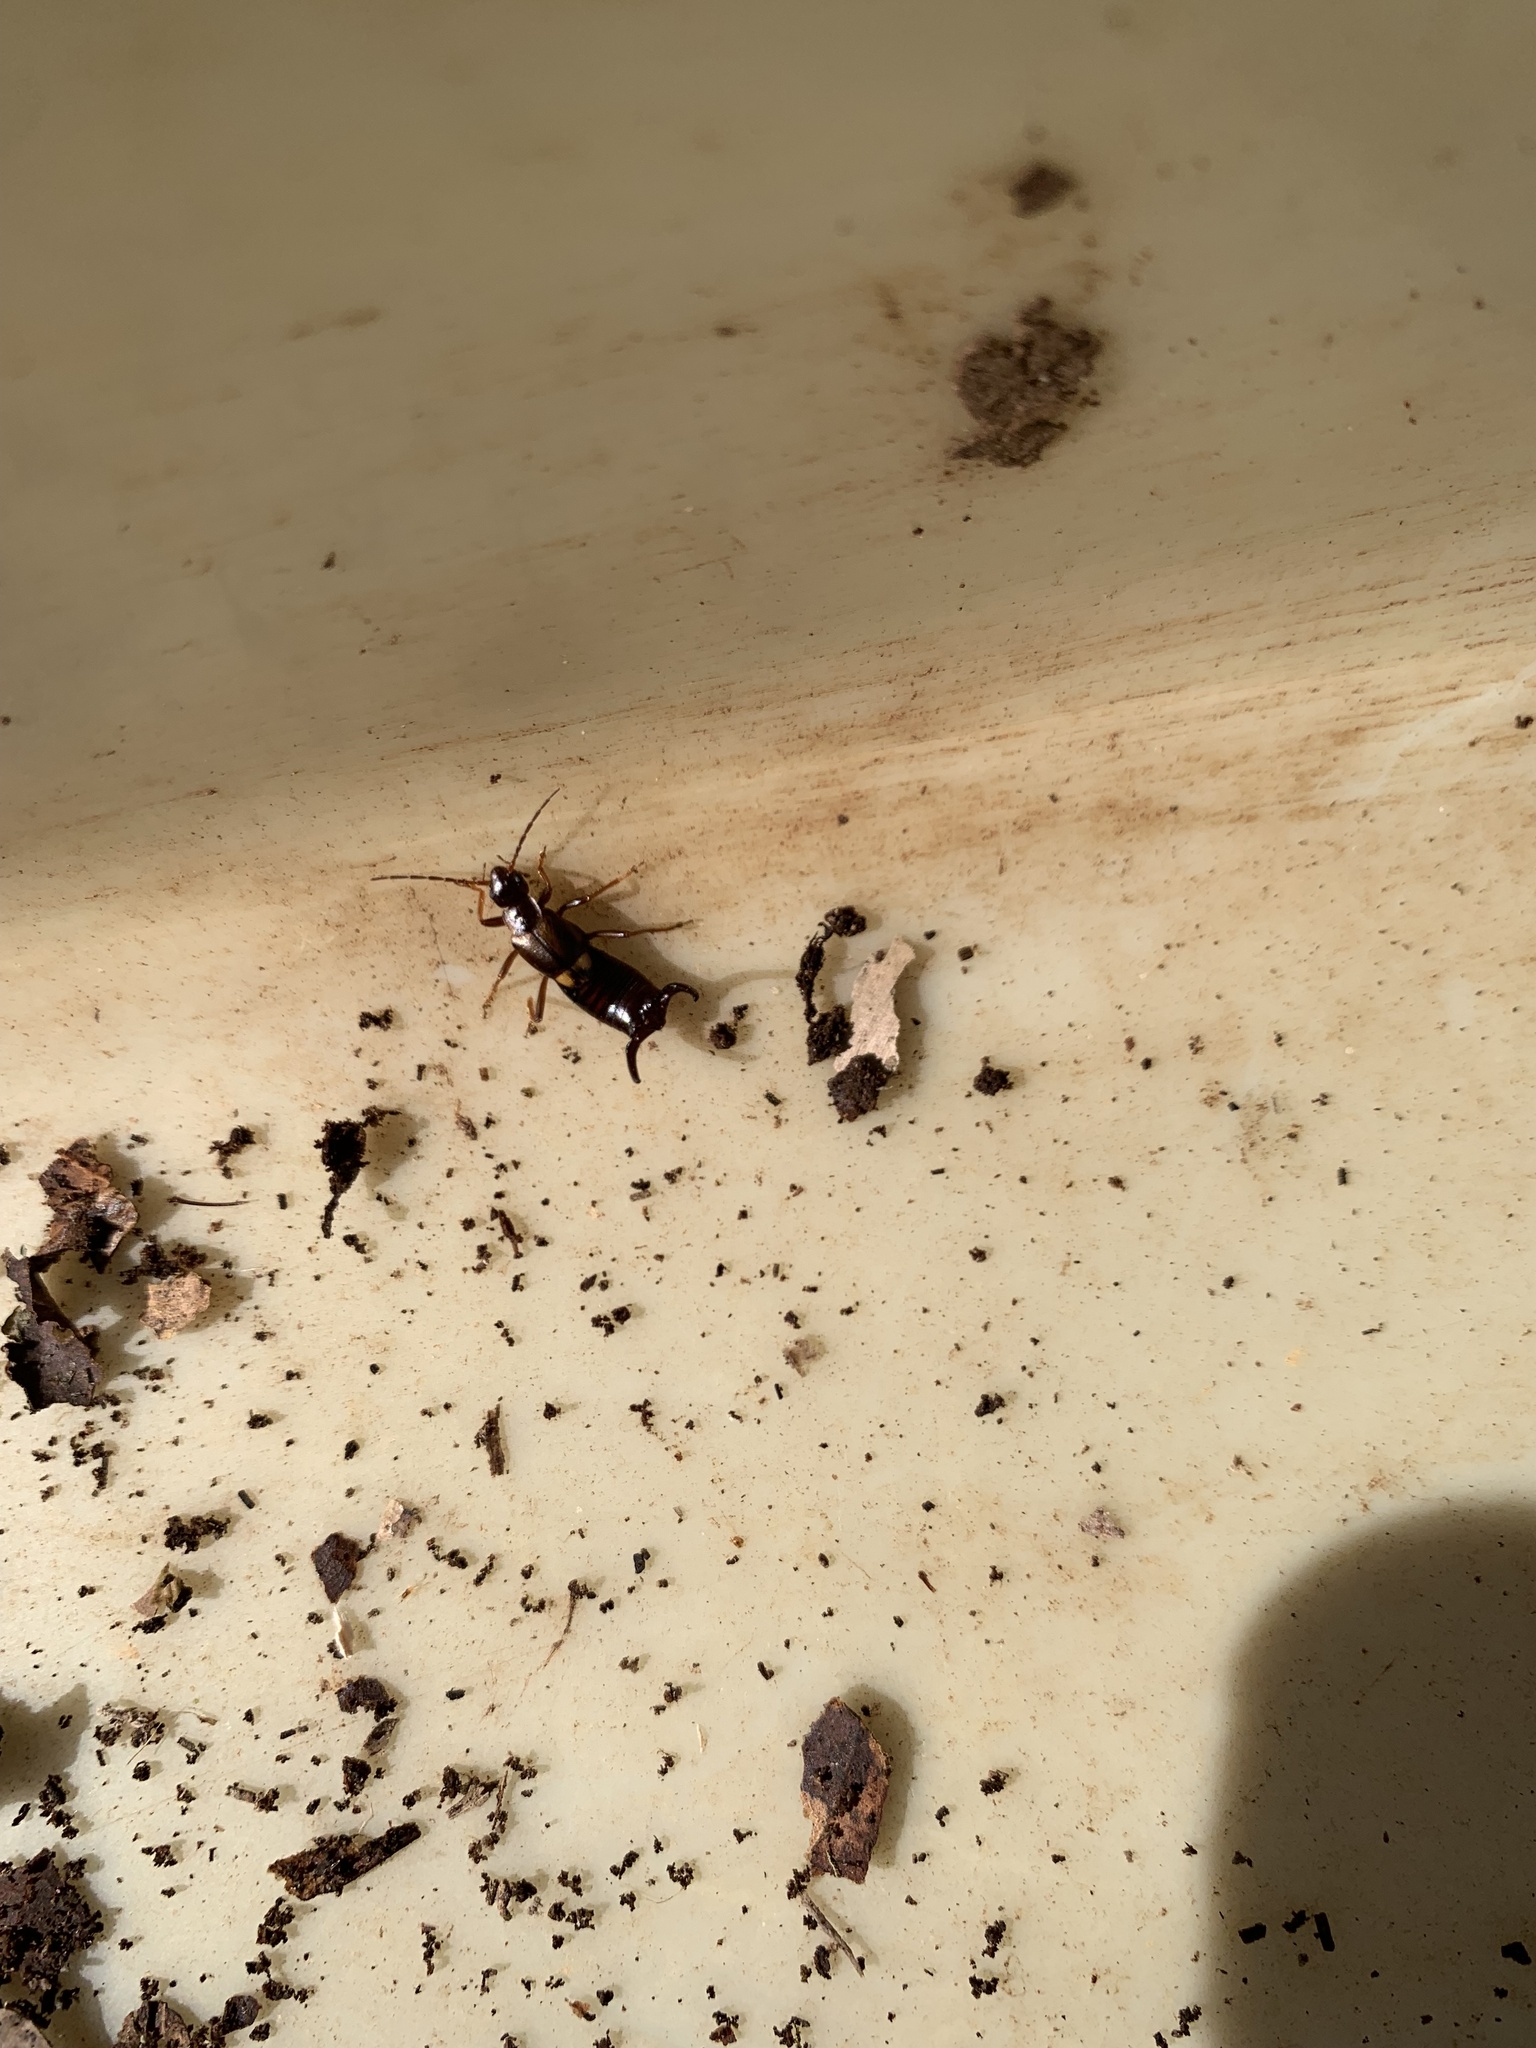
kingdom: Animalia
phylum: Arthropoda
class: Insecta
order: Dermaptera
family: Forficulidae
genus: Anechura
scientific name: Anechura harmandi
